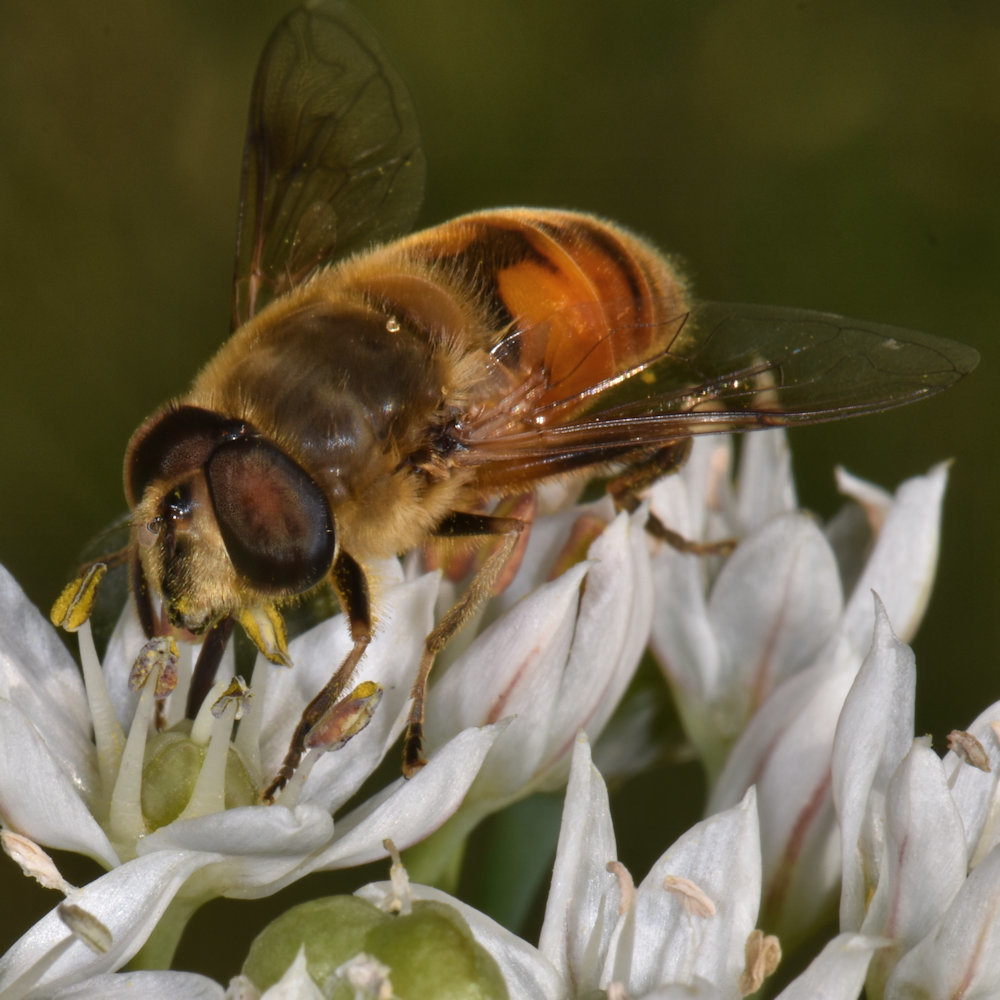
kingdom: Animalia
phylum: Arthropoda
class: Insecta
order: Diptera
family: Syrphidae
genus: Eristalis
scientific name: Eristalis tenax
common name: Drone fly
